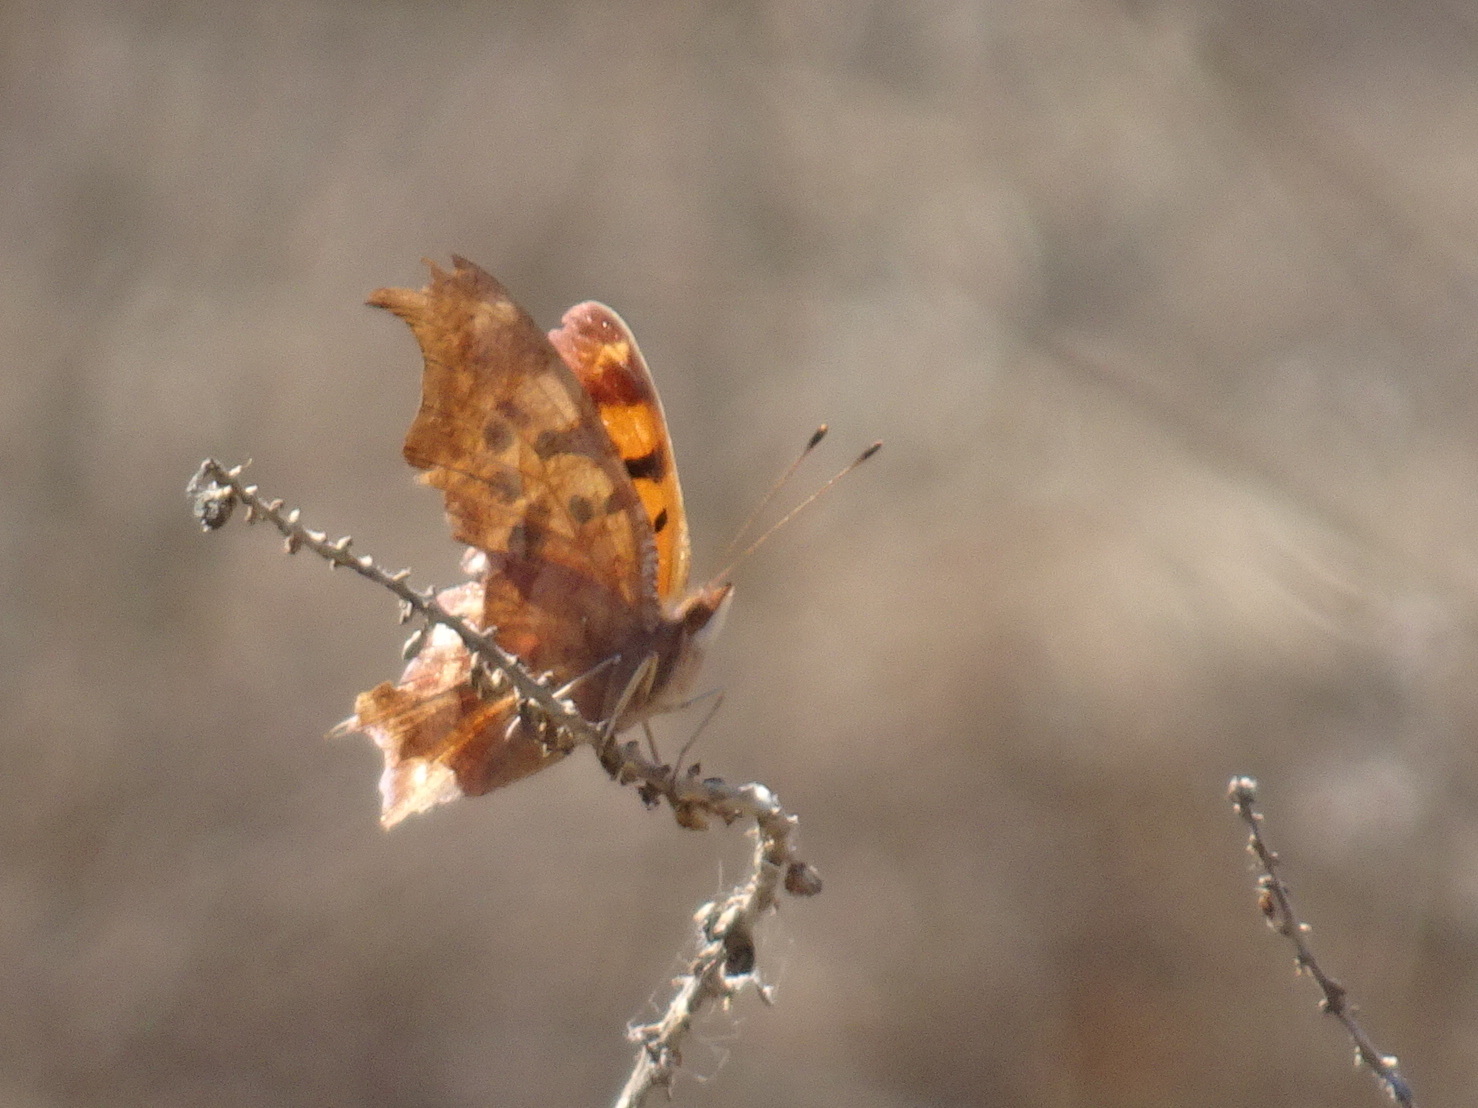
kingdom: Animalia
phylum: Arthropoda
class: Insecta
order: Lepidoptera
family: Nymphalidae
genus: Polygonia
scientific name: Polygonia interrogationis
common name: Question mark
